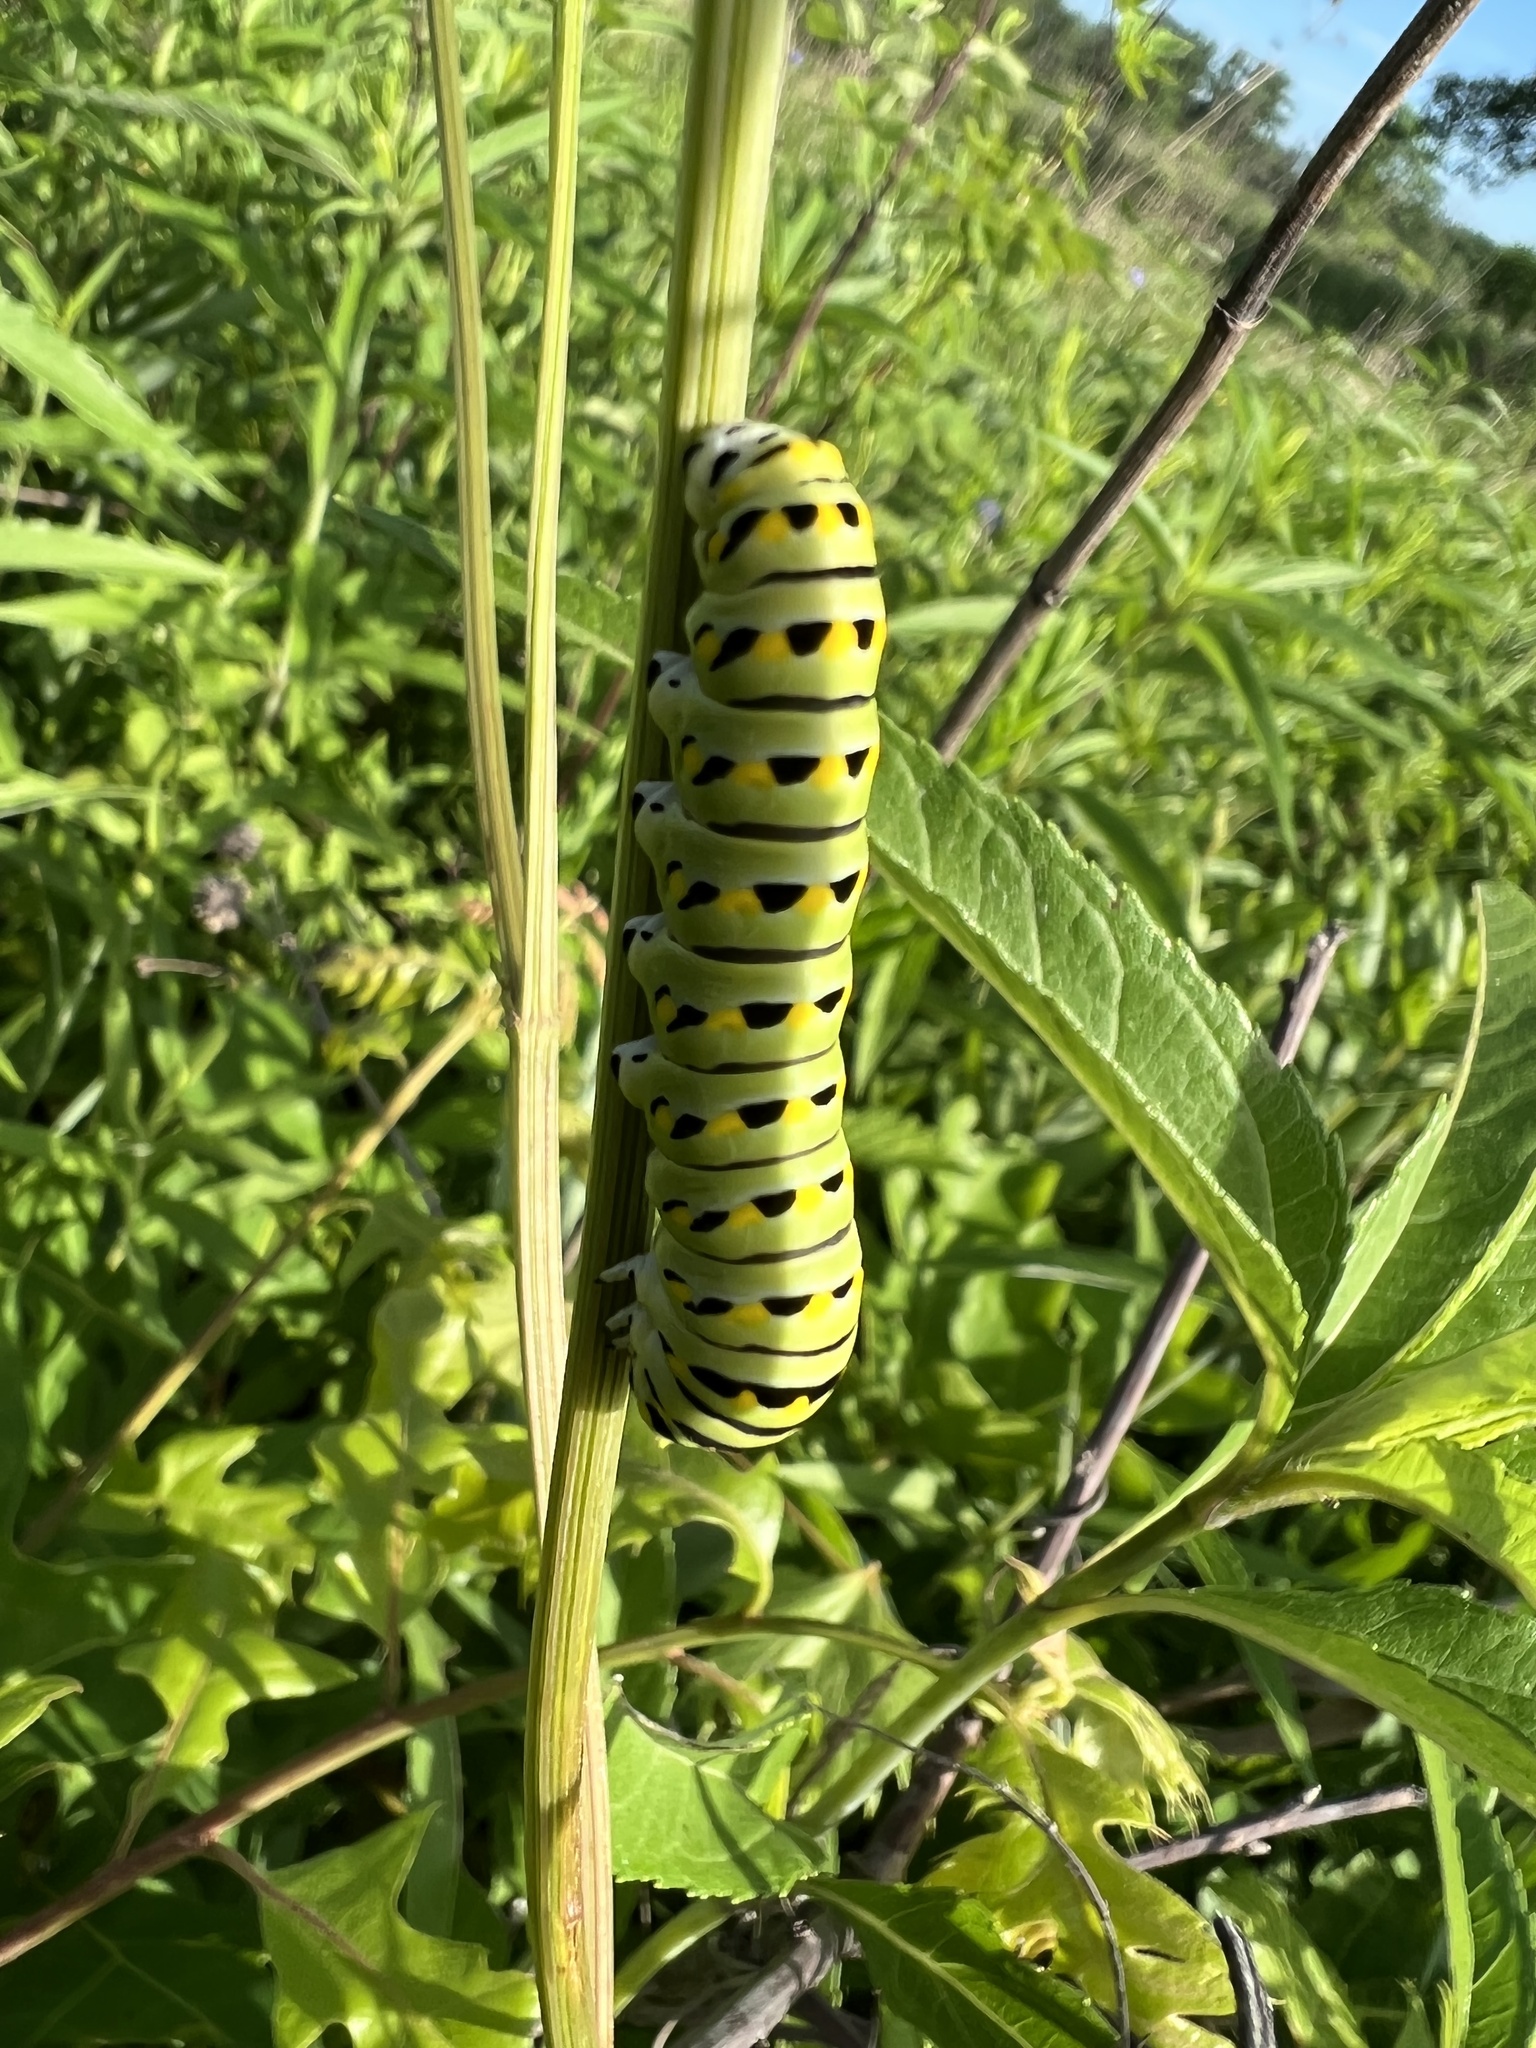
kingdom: Animalia
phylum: Arthropoda
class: Insecta
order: Lepidoptera
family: Papilionidae
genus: Papilio
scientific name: Papilio polyxenes
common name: Black swallowtail
